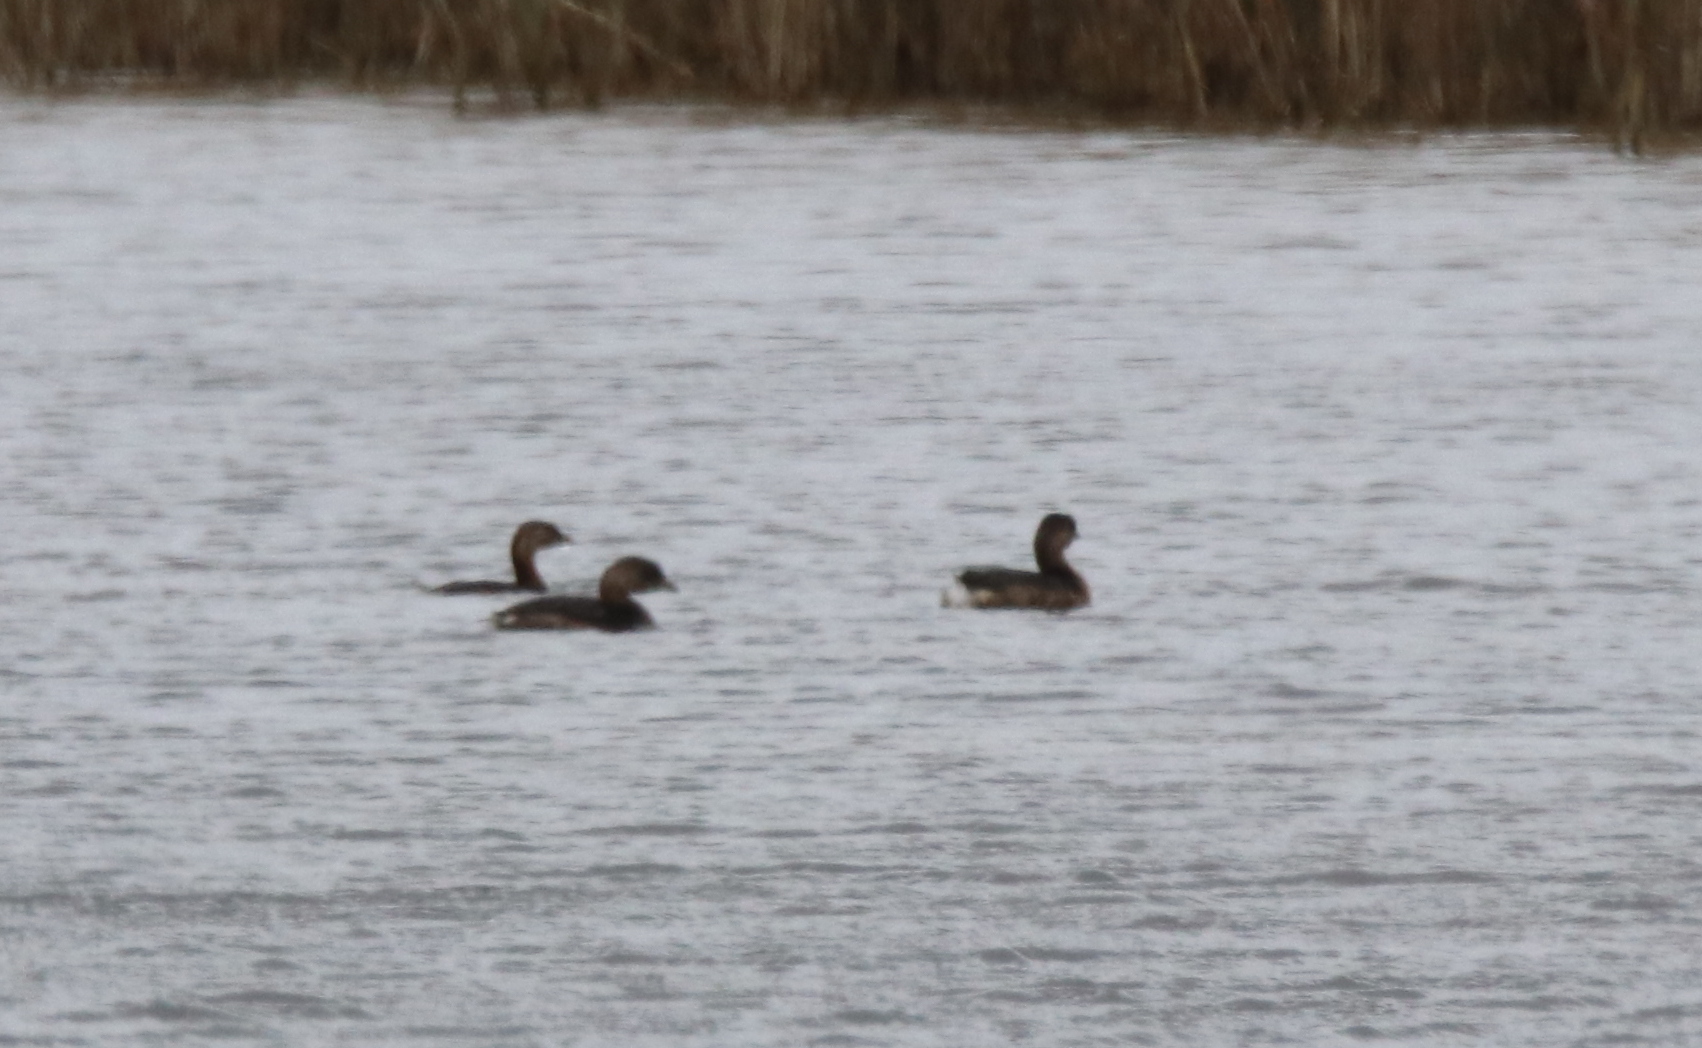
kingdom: Animalia
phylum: Chordata
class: Aves
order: Podicipediformes
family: Podicipedidae
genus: Podilymbus
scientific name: Podilymbus podiceps
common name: Pied-billed grebe
